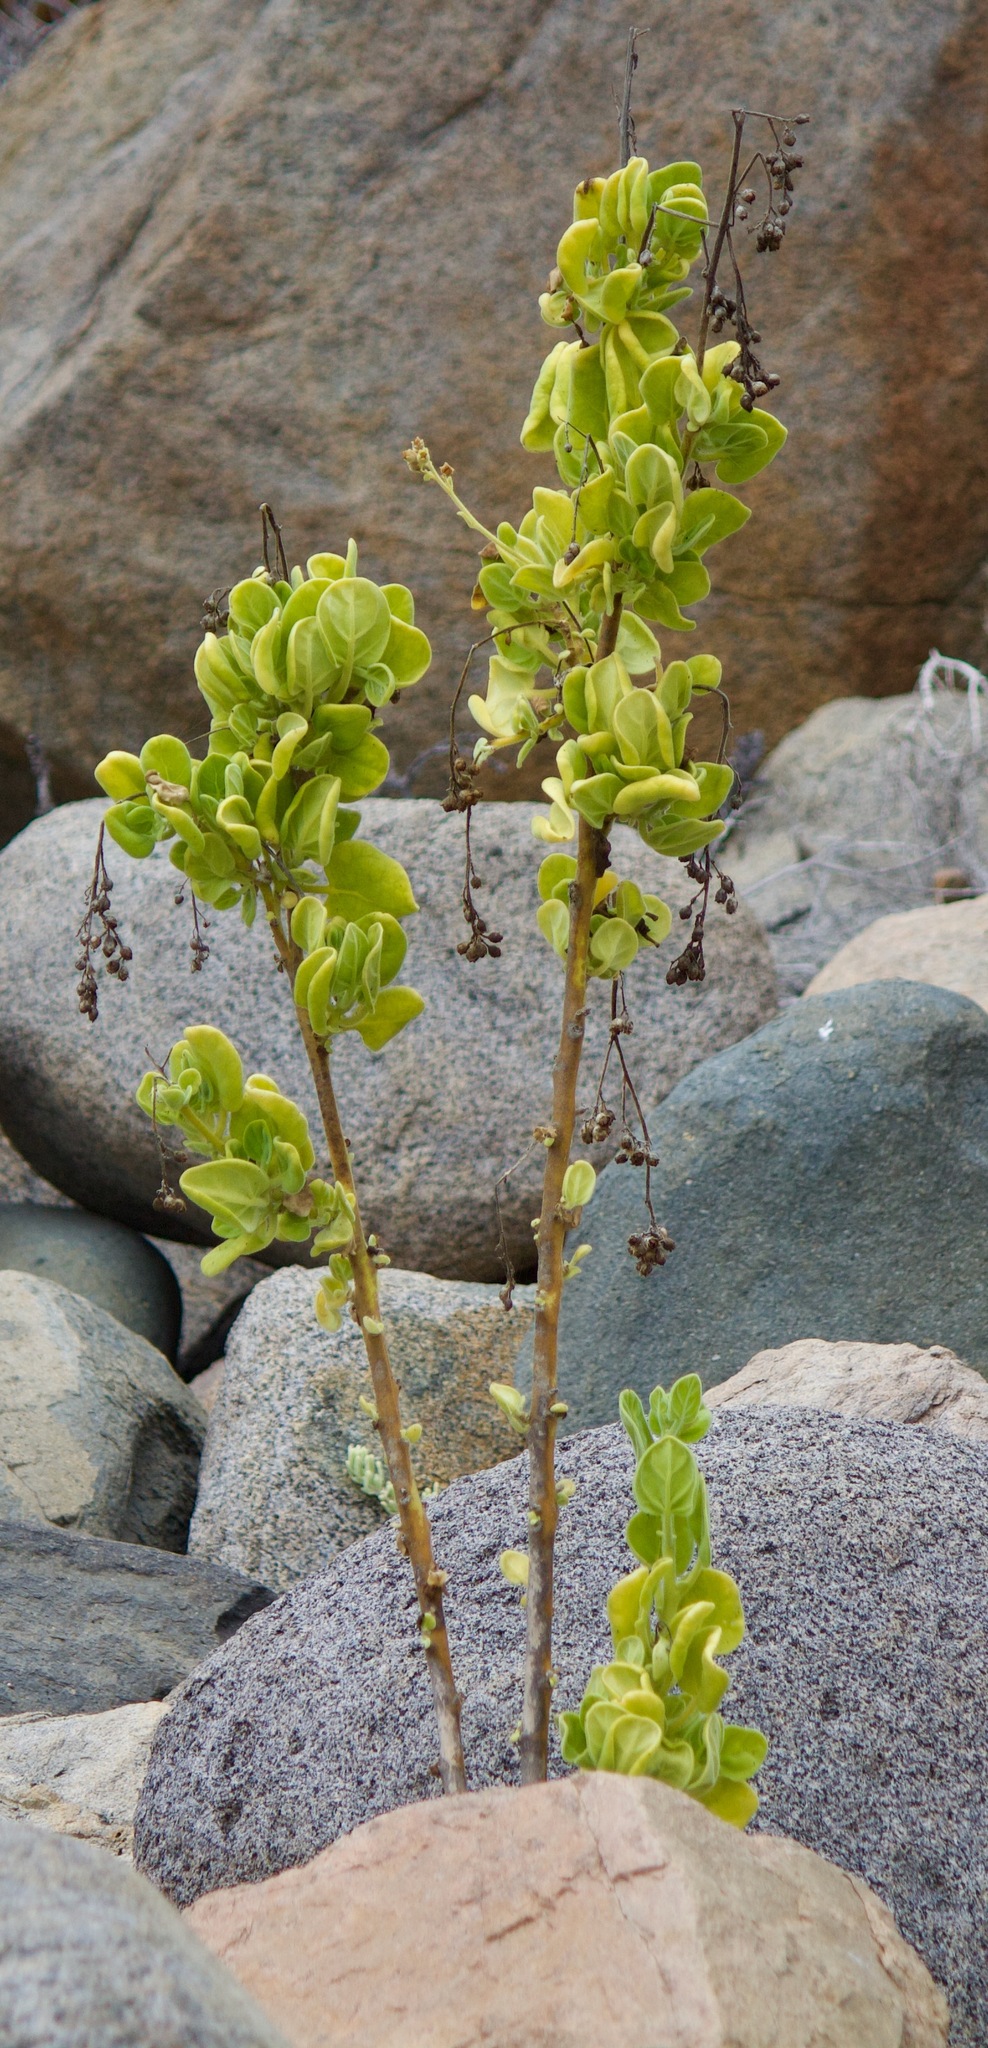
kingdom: Plantae
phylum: Tracheophyta
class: Magnoliopsida
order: Solanales
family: Solanaceae
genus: Nicotiana
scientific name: Nicotiana rupicola
